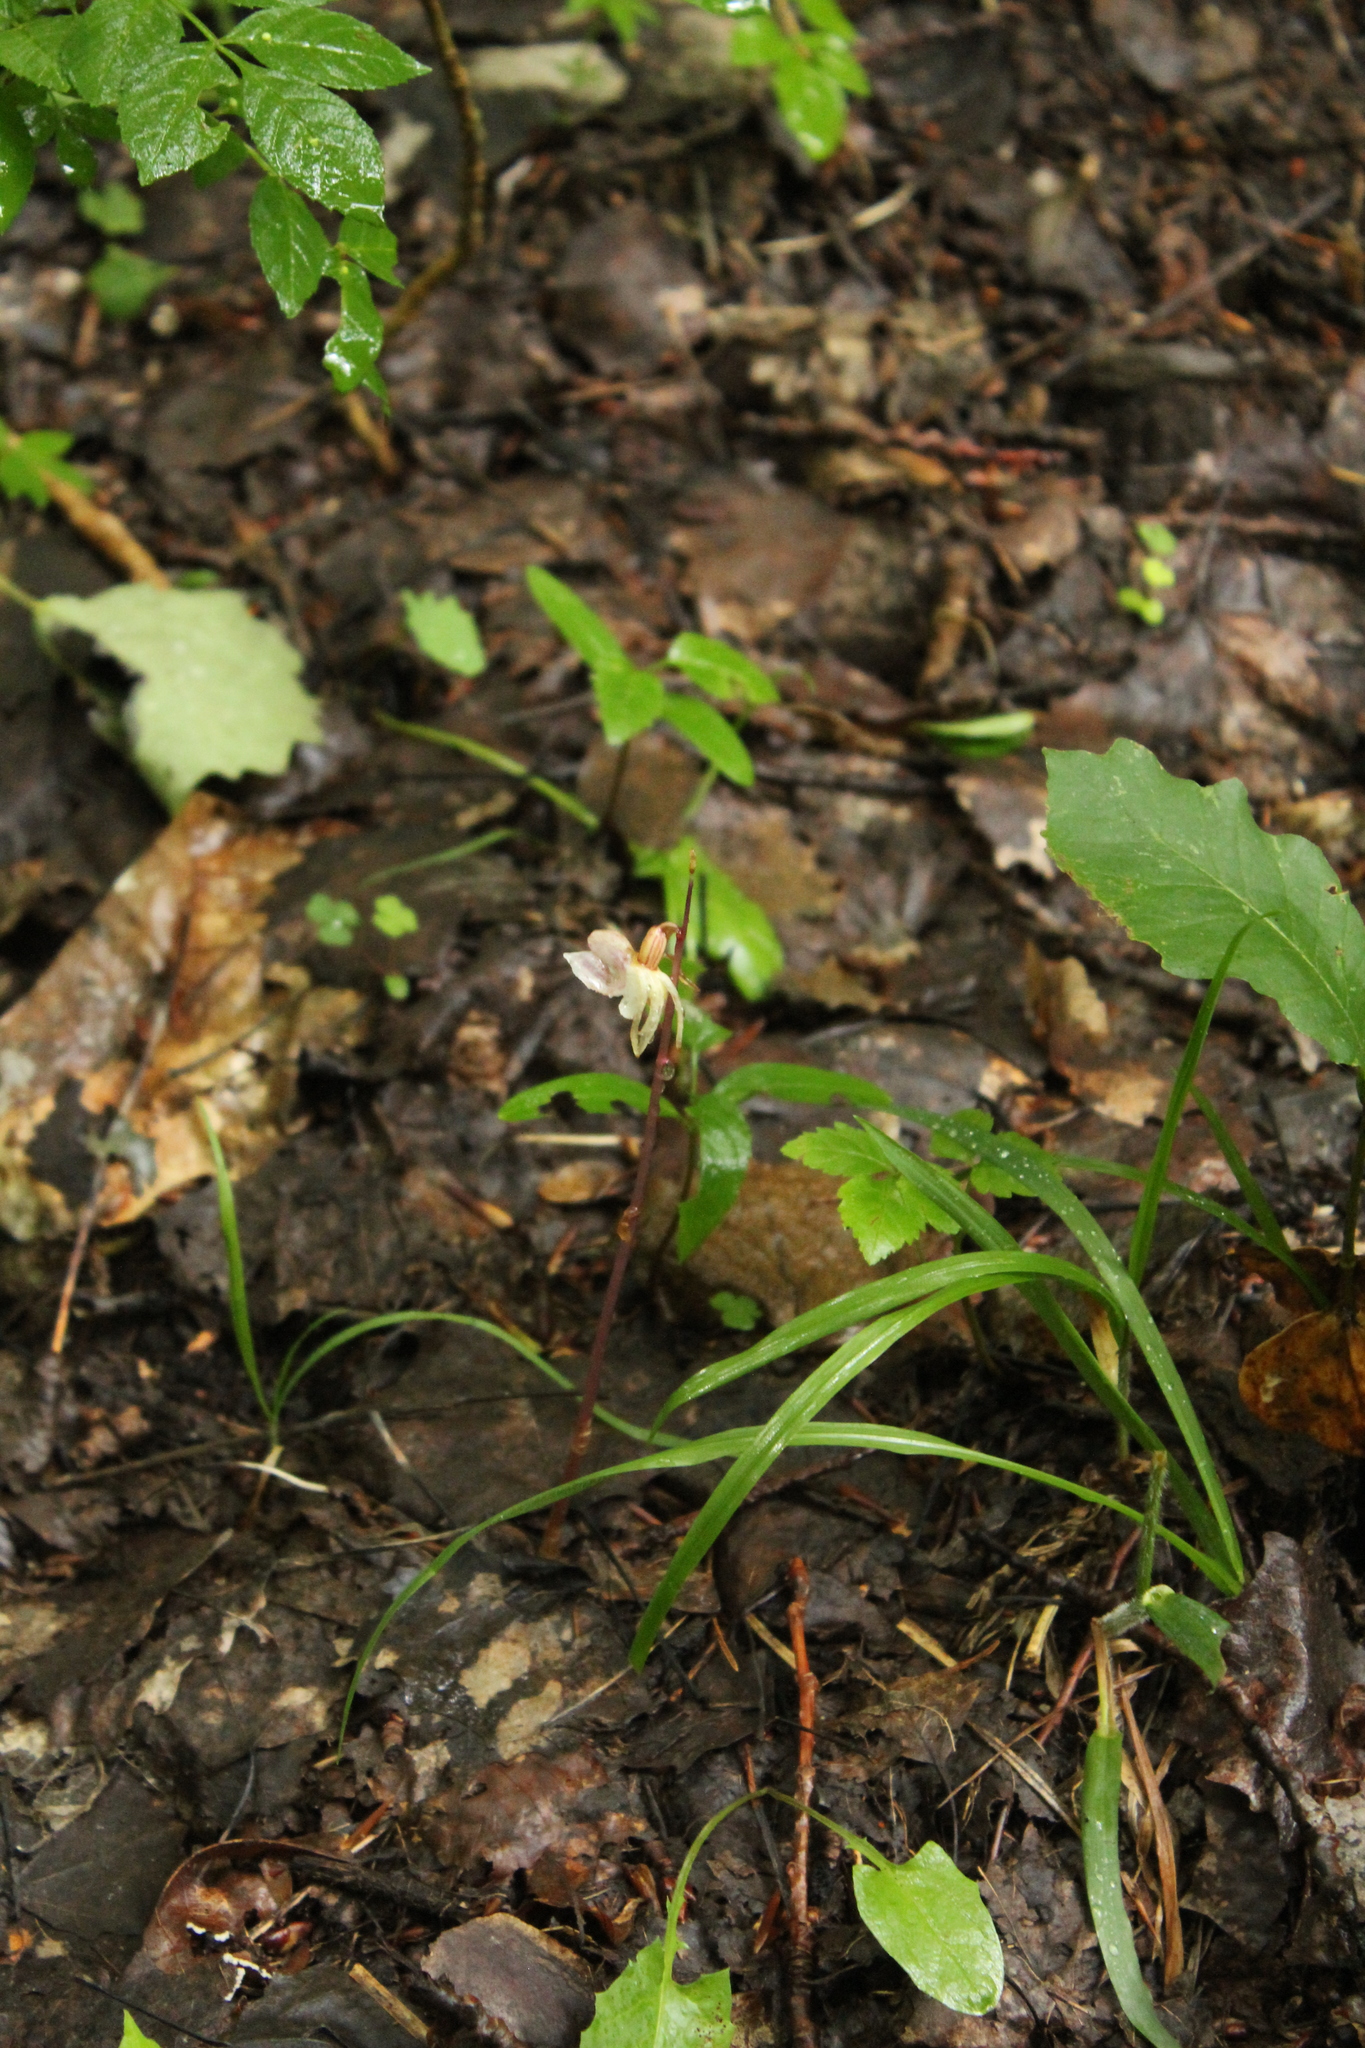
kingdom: Plantae
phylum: Tracheophyta
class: Liliopsida
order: Asparagales
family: Orchidaceae
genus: Epipogium
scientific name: Epipogium aphyllum
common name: Ghost orchid
